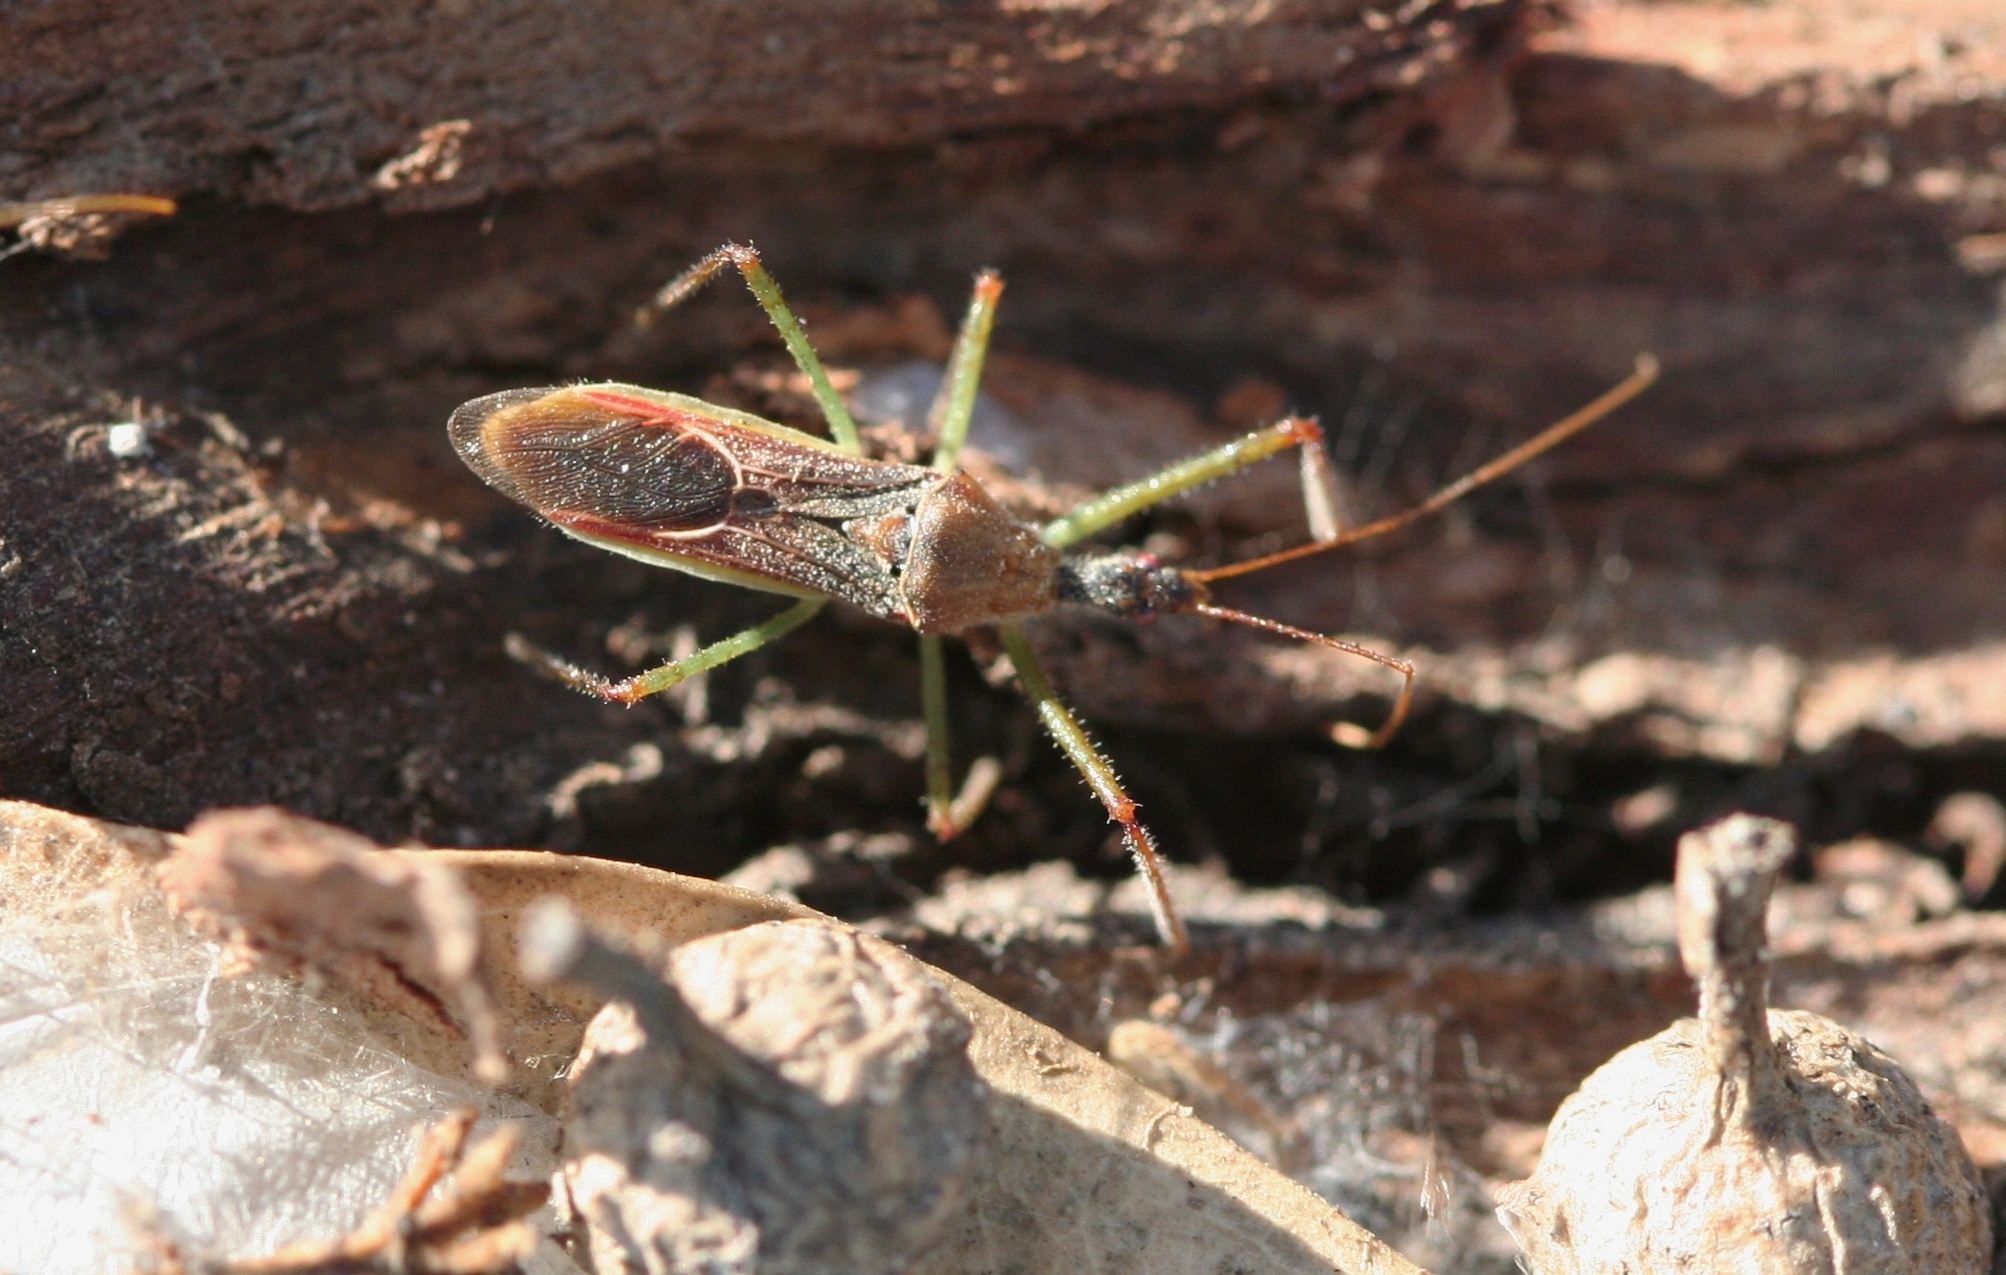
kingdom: Animalia
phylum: Arthropoda
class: Insecta
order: Hemiptera
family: Reduviidae
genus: Zelus
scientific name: Zelus renardii
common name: Assassin bug
